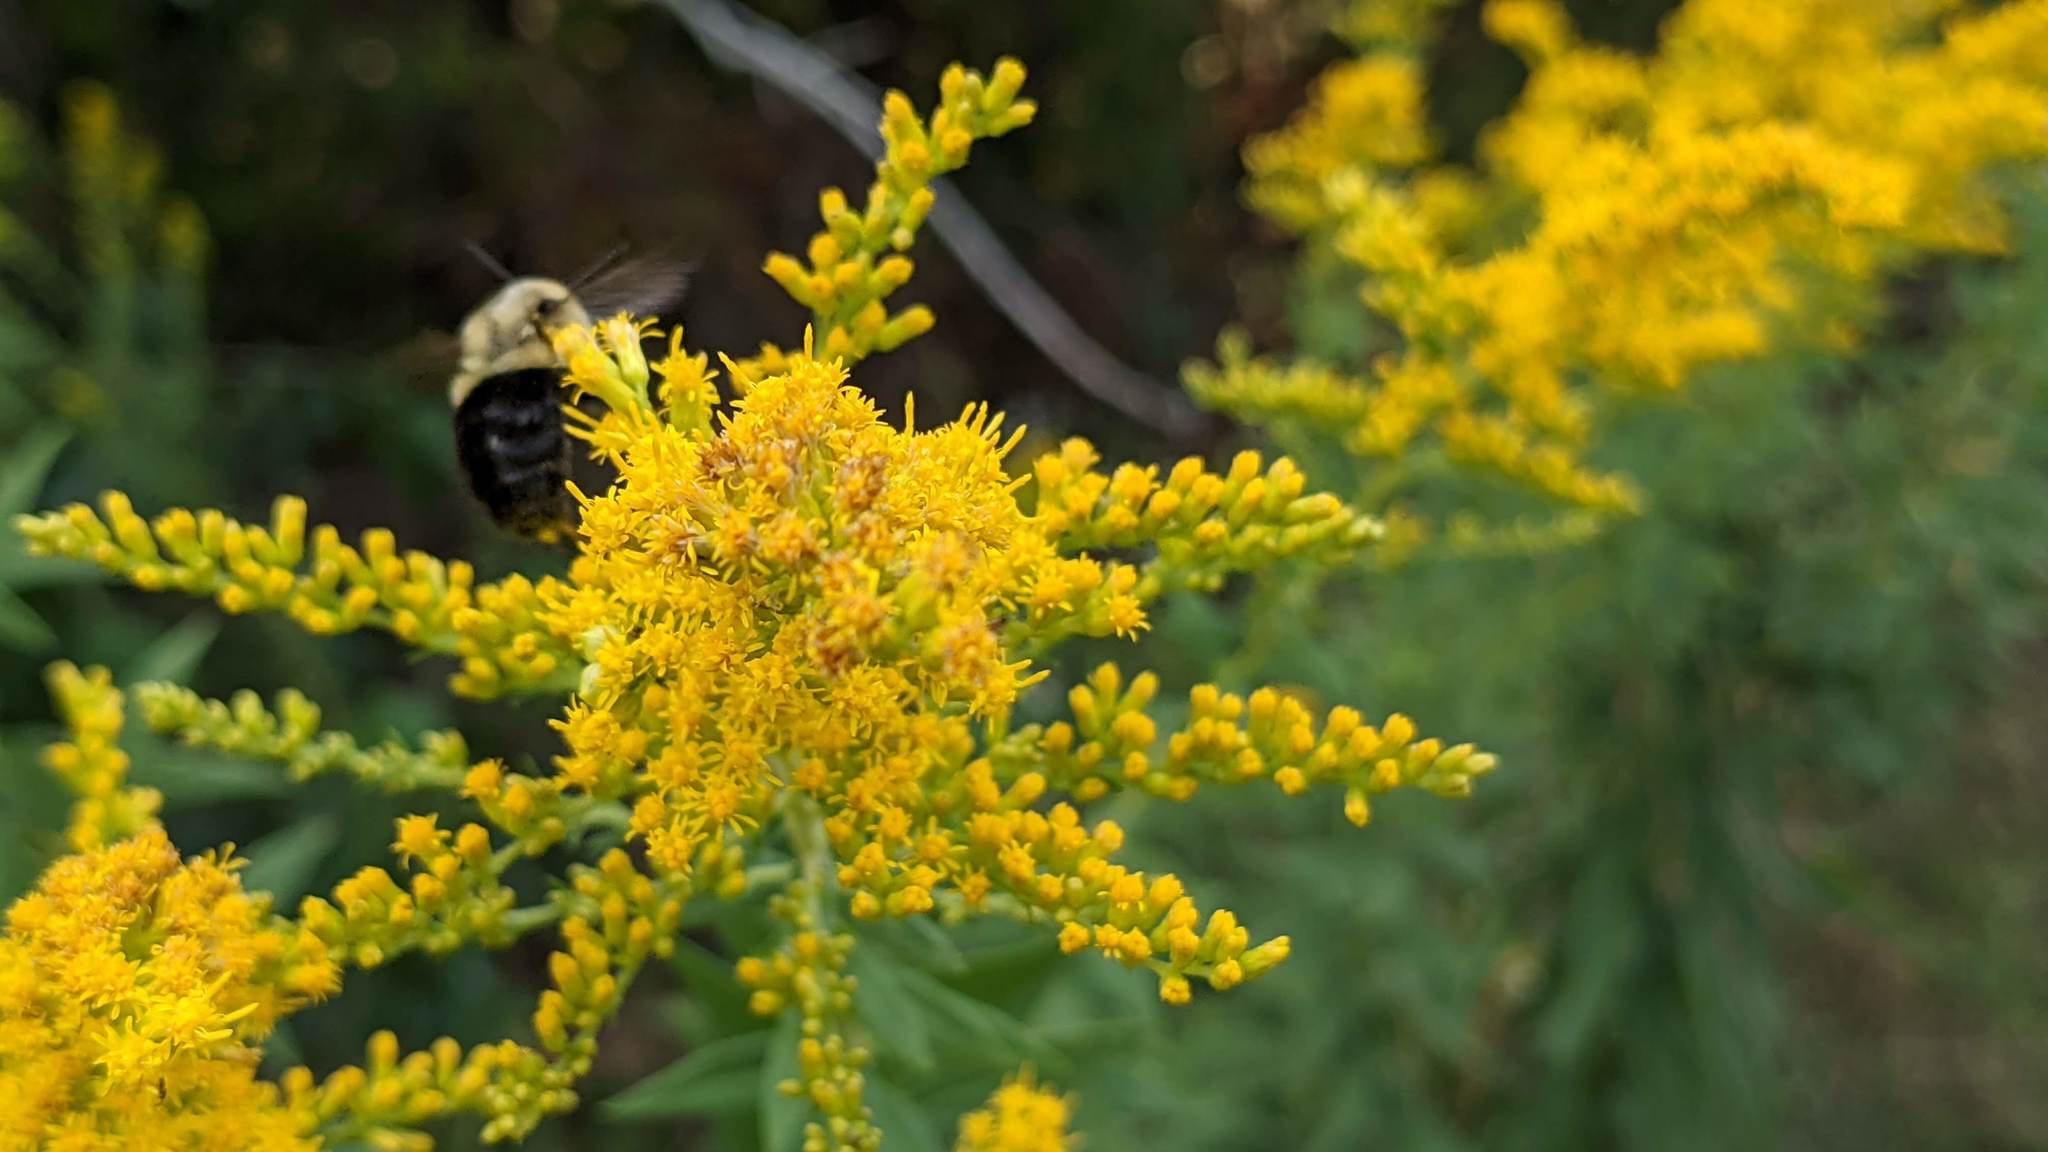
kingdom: Animalia
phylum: Arthropoda
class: Insecta
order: Hymenoptera
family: Apidae
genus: Bombus
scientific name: Bombus impatiens
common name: Common eastern bumble bee
